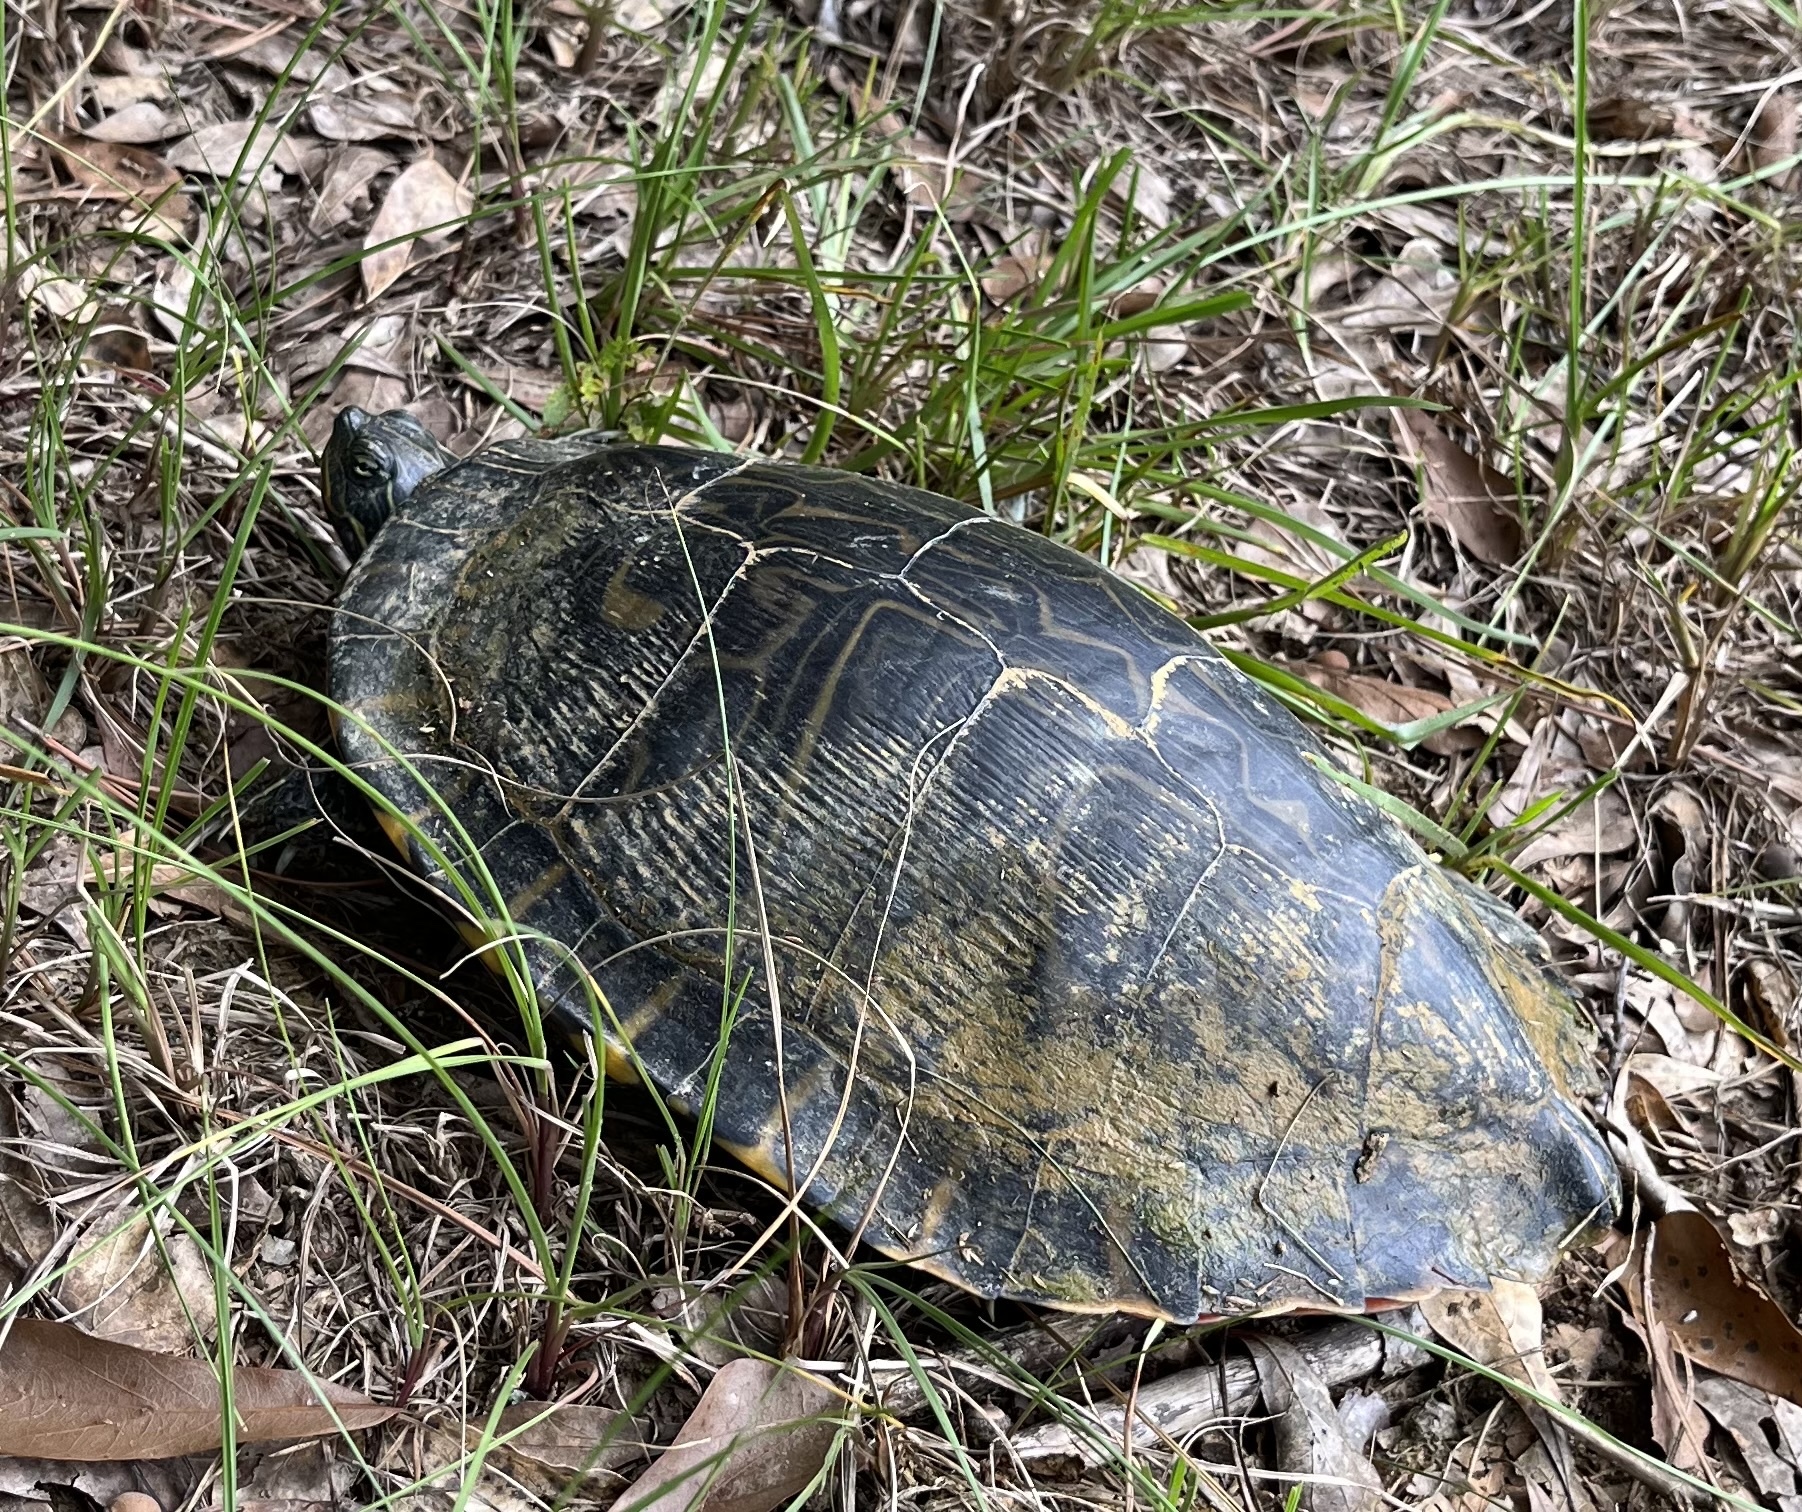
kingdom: Animalia
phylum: Chordata
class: Testudines
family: Emydidae
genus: Pseudemys
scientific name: Pseudemys concinna
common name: Eastern river cooter
